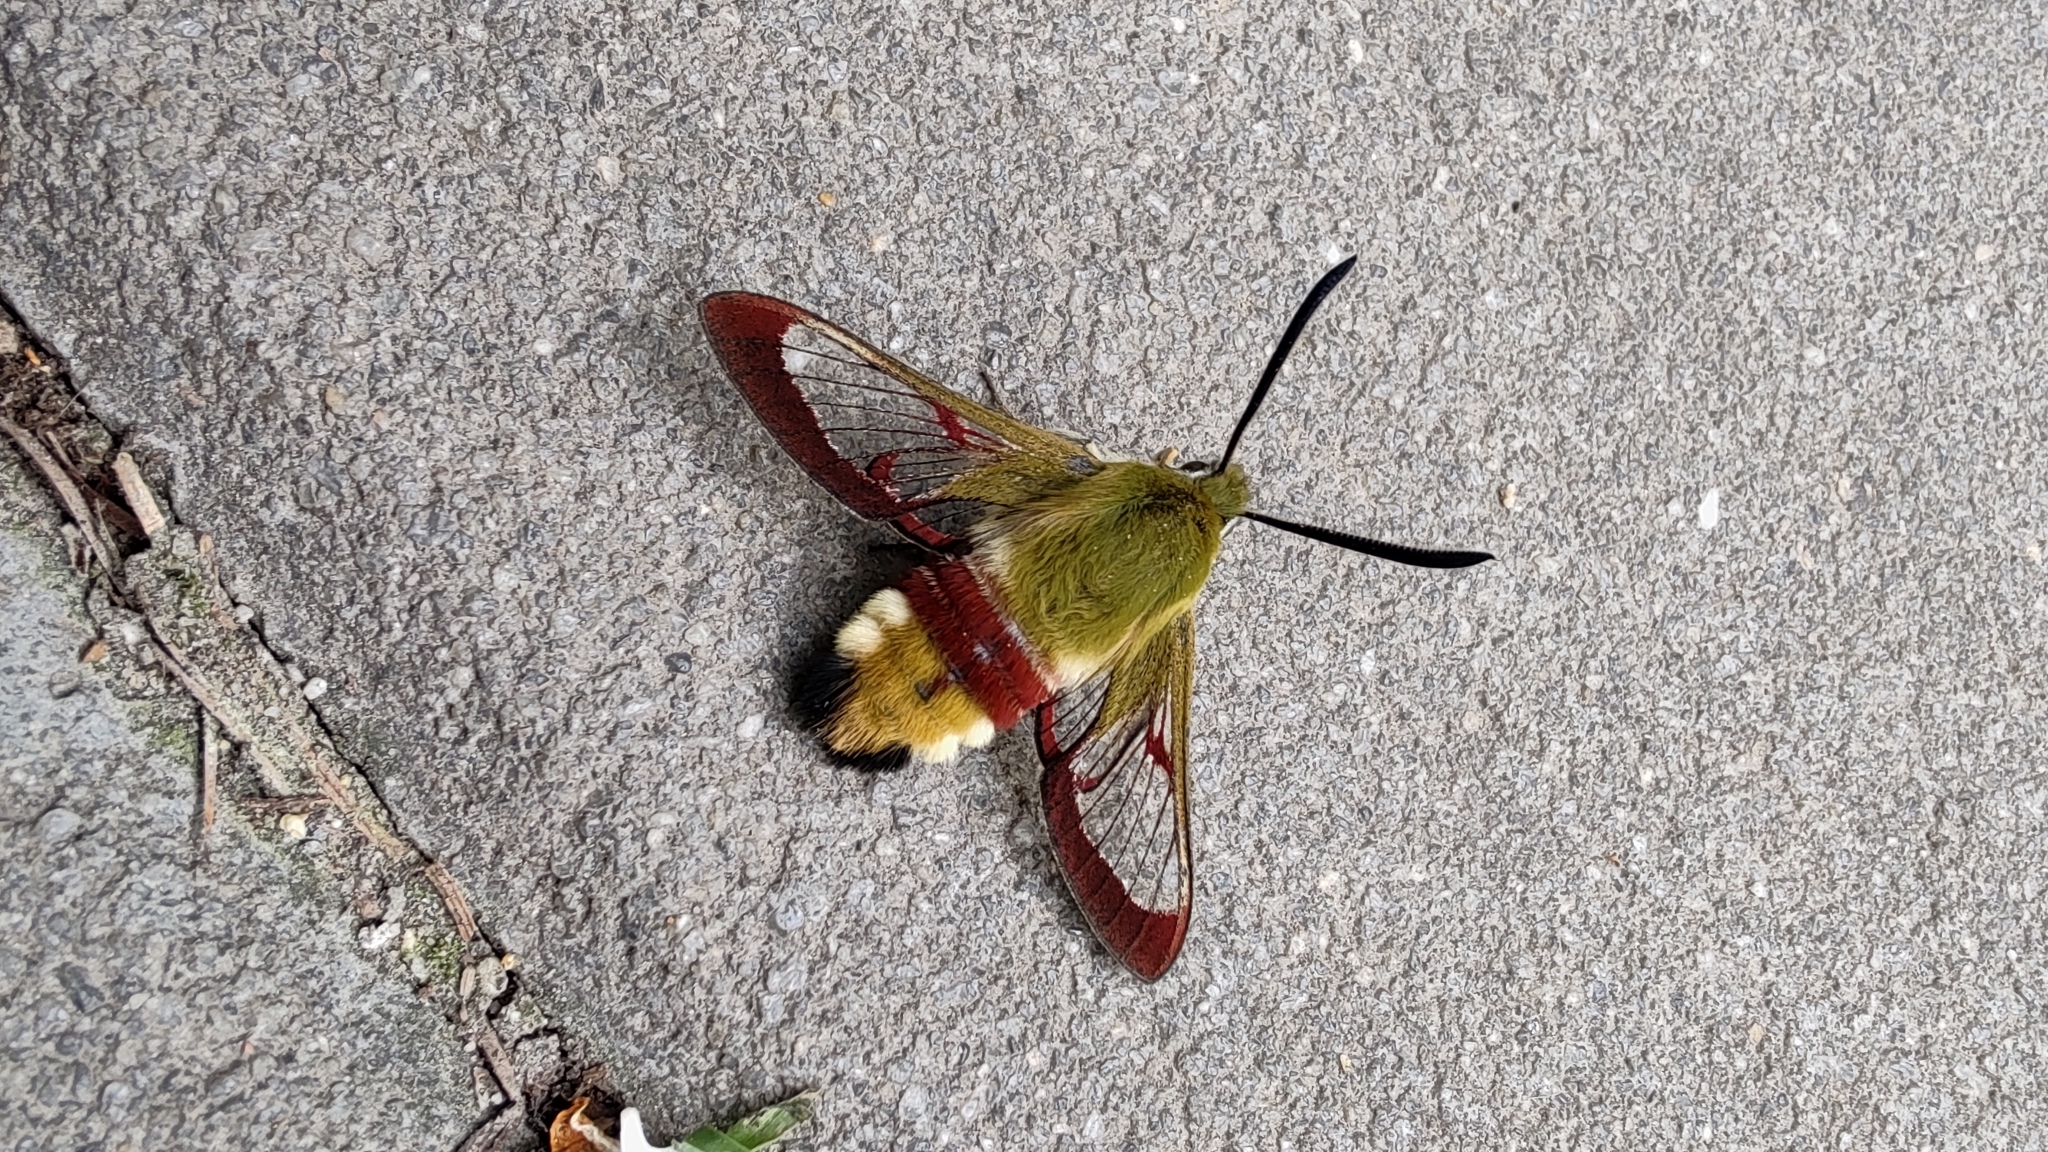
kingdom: Animalia
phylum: Arthropoda
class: Insecta
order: Lepidoptera
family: Sphingidae
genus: Hemaris
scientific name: Hemaris fuciformis
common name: Broad-bordered bee hawk-moth
